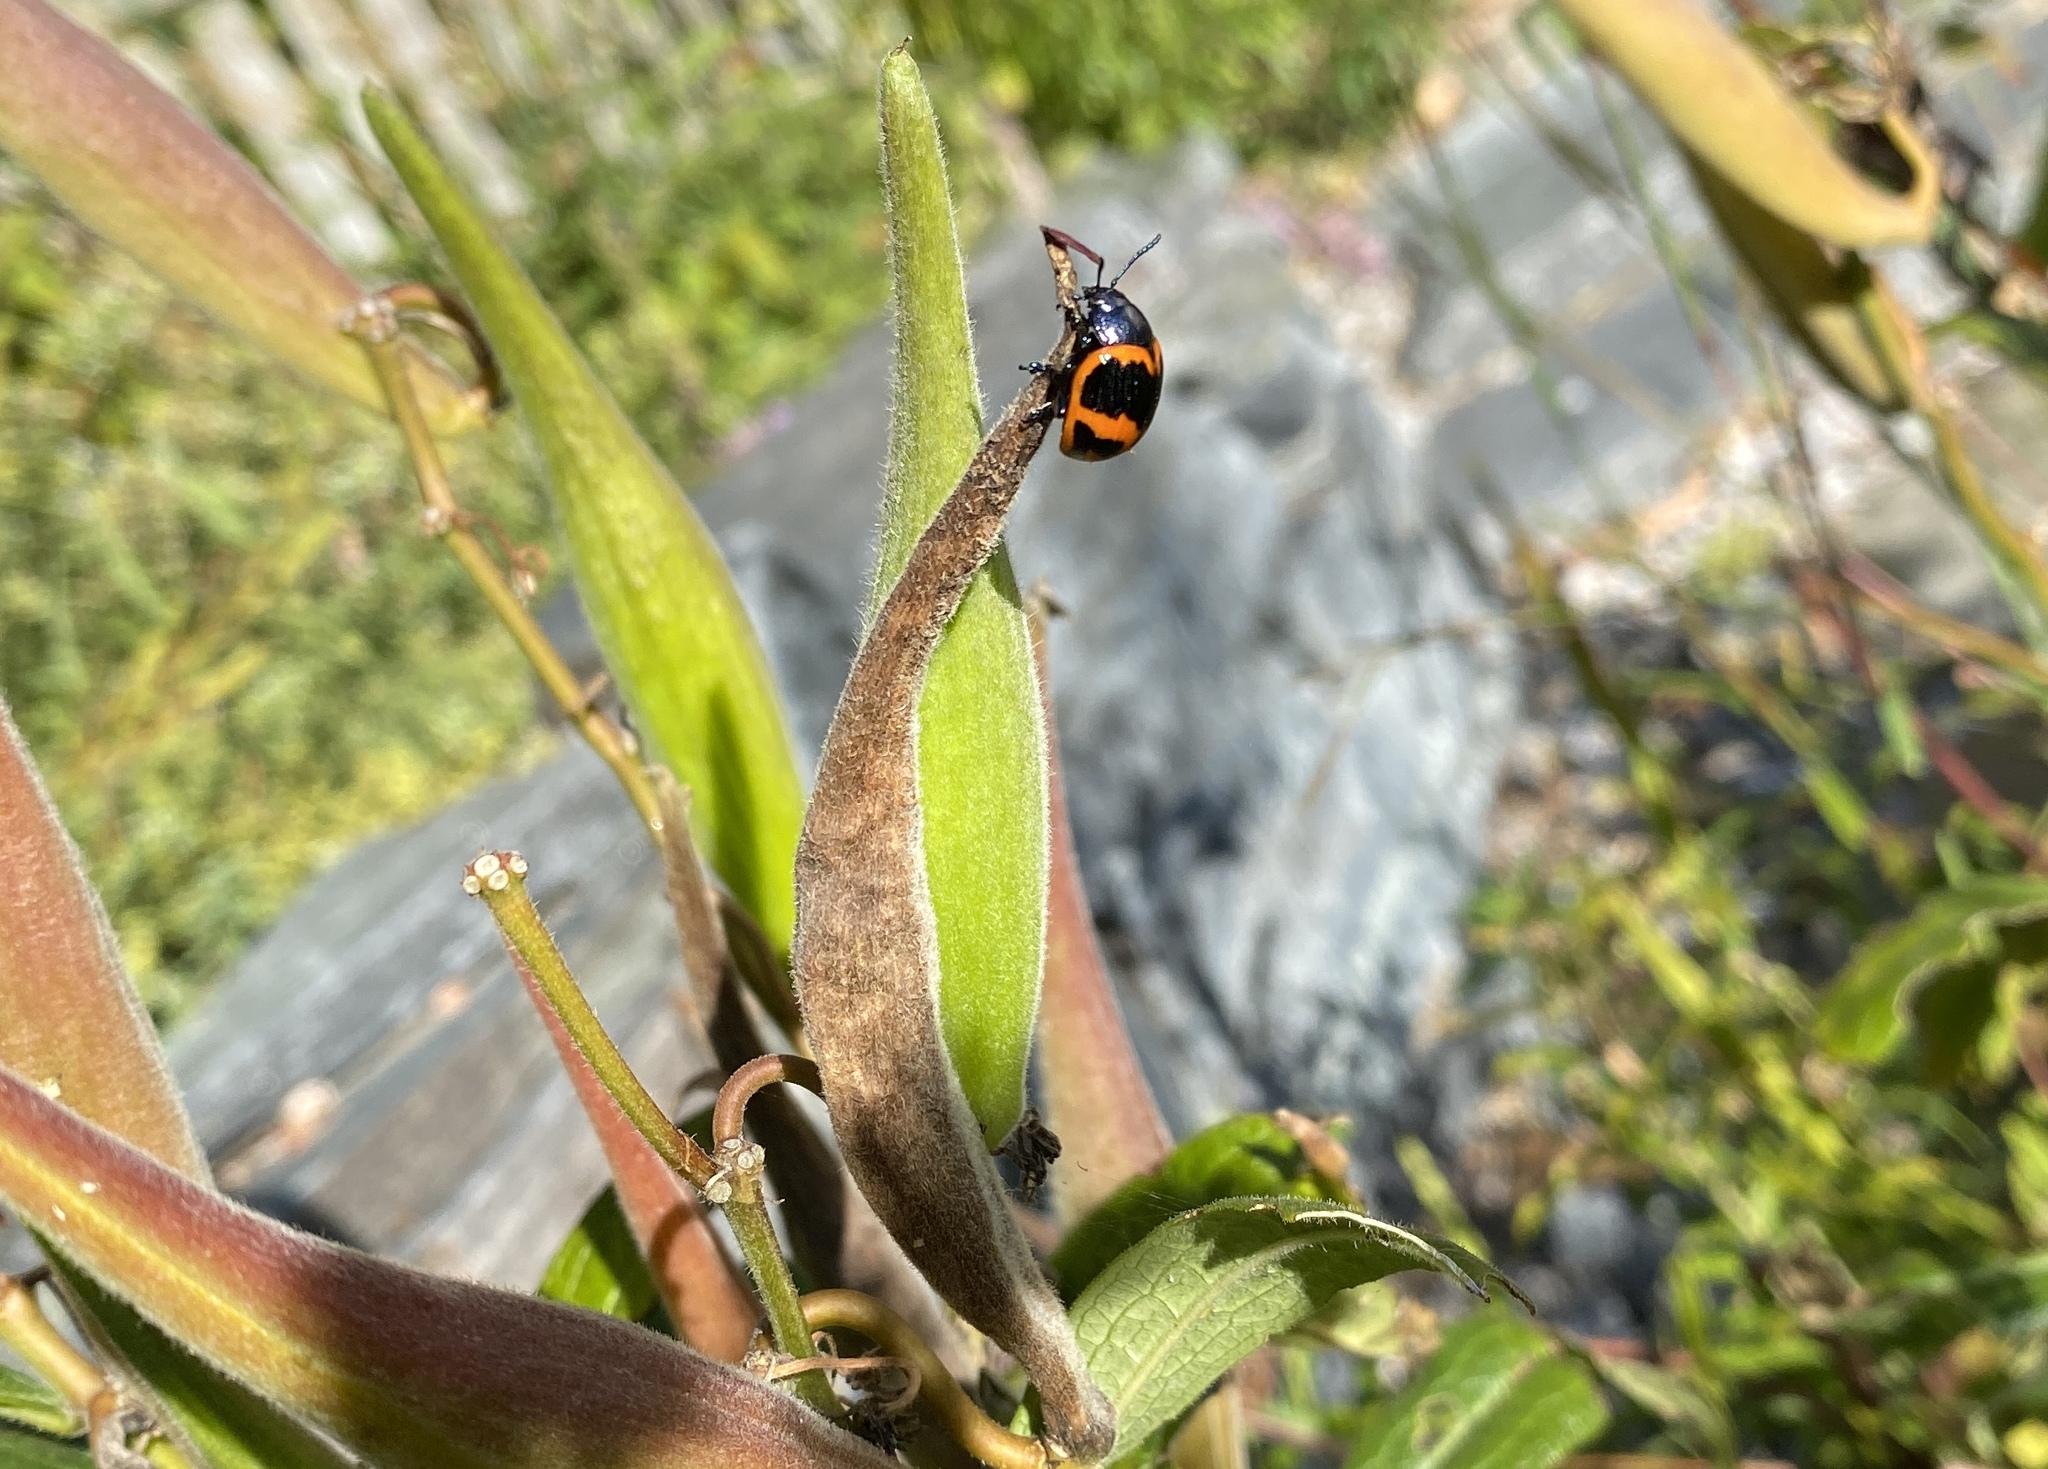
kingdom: Animalia
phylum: Arthropoda
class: Insecta
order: Coleoptera
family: Chrysomelidae
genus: Labidomera
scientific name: Labidomera clivicollis
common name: Swamp milkweed leaf beetle
